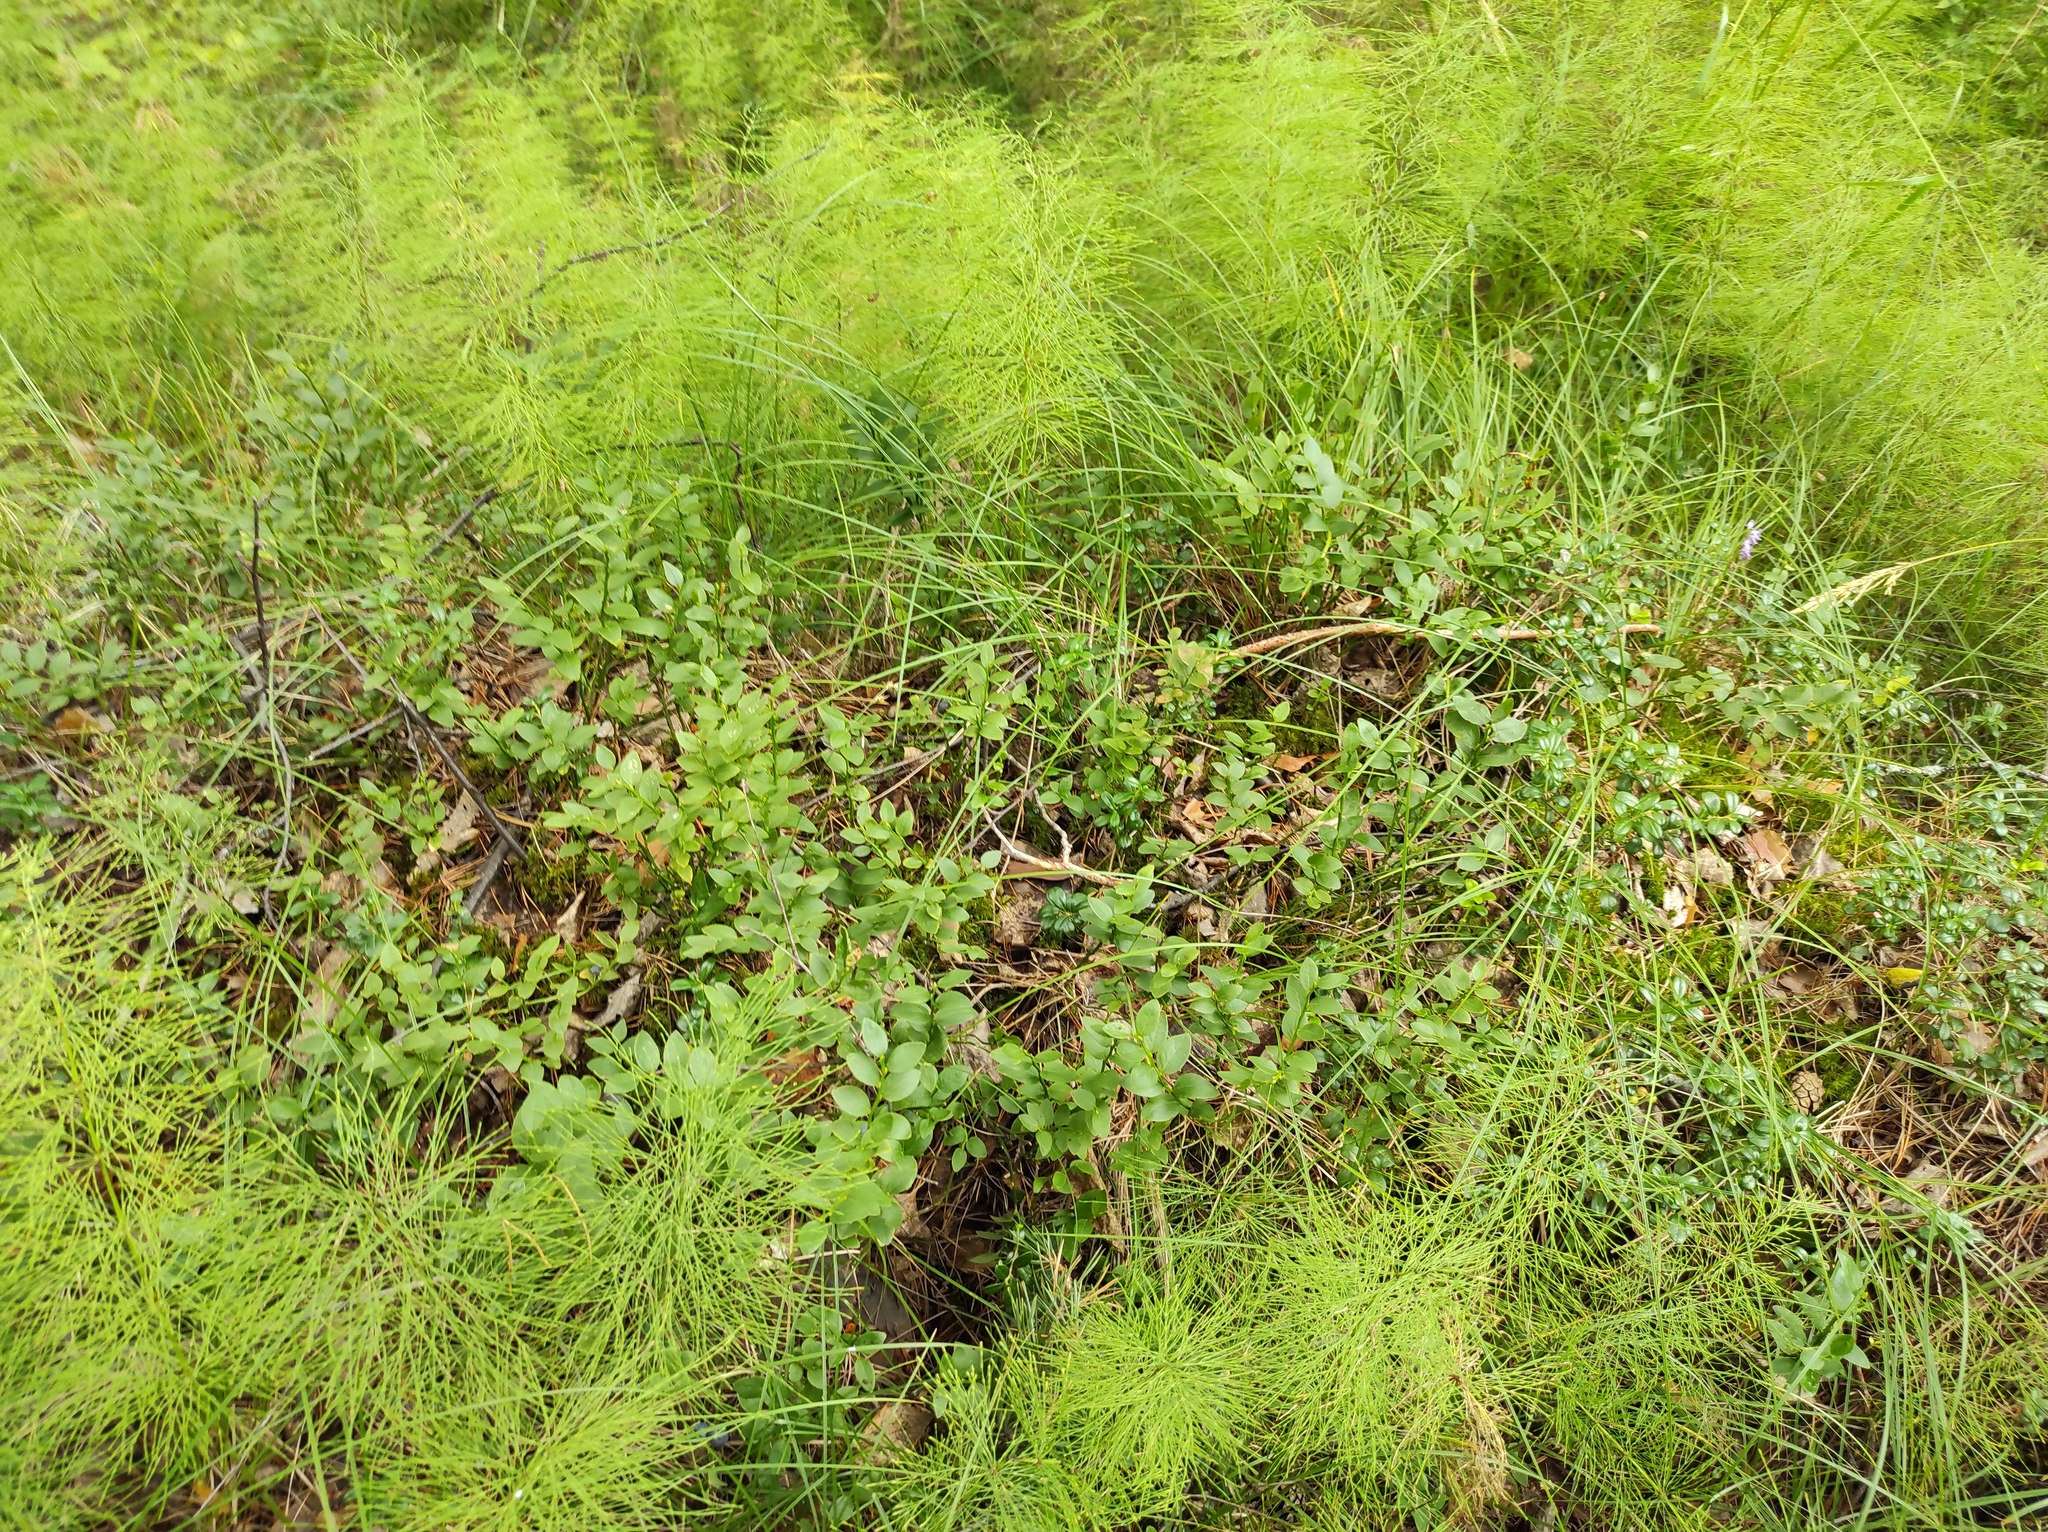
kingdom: Plantae
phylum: Tracheophyta
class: Magnoliopsida
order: Ericales
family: Ericaceae
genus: Vaccinium
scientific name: Vaccinium myrtillus
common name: Bilberry
